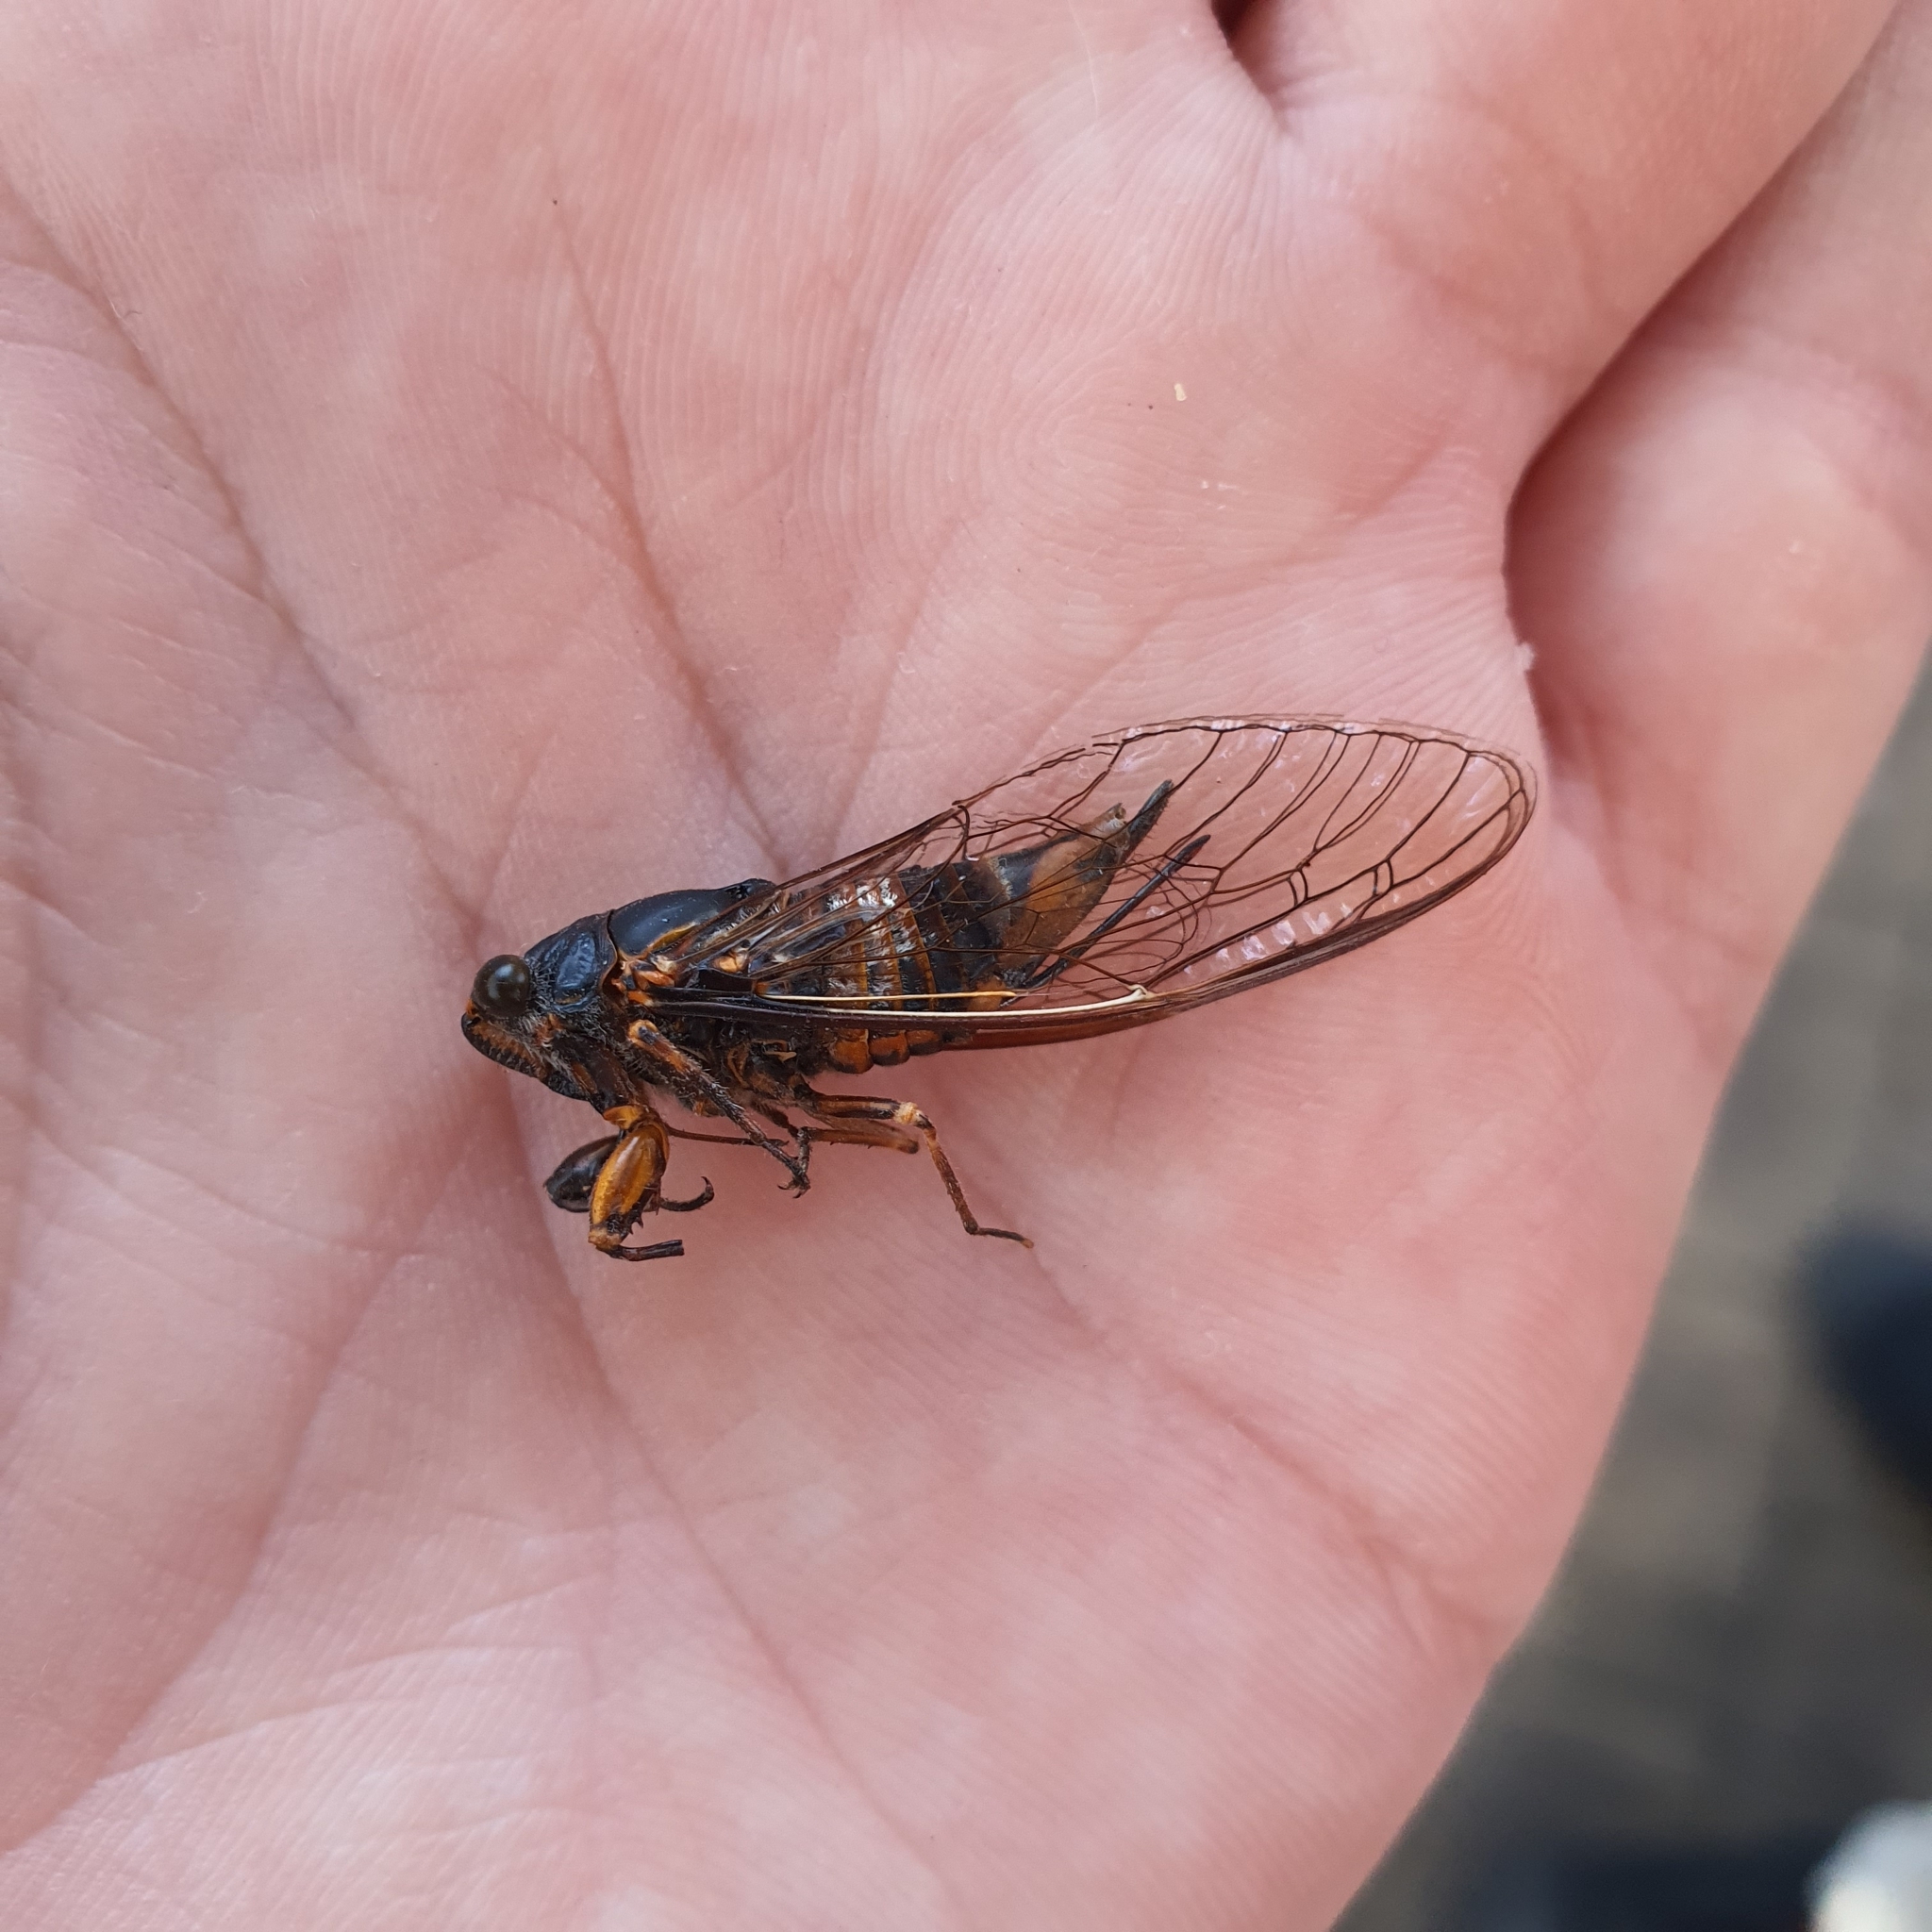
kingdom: Animalia
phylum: Arthropoda
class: Insecta
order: Hemiptera
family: Cicadidae
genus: Pyropsalta
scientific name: Pyropsalta amnica
